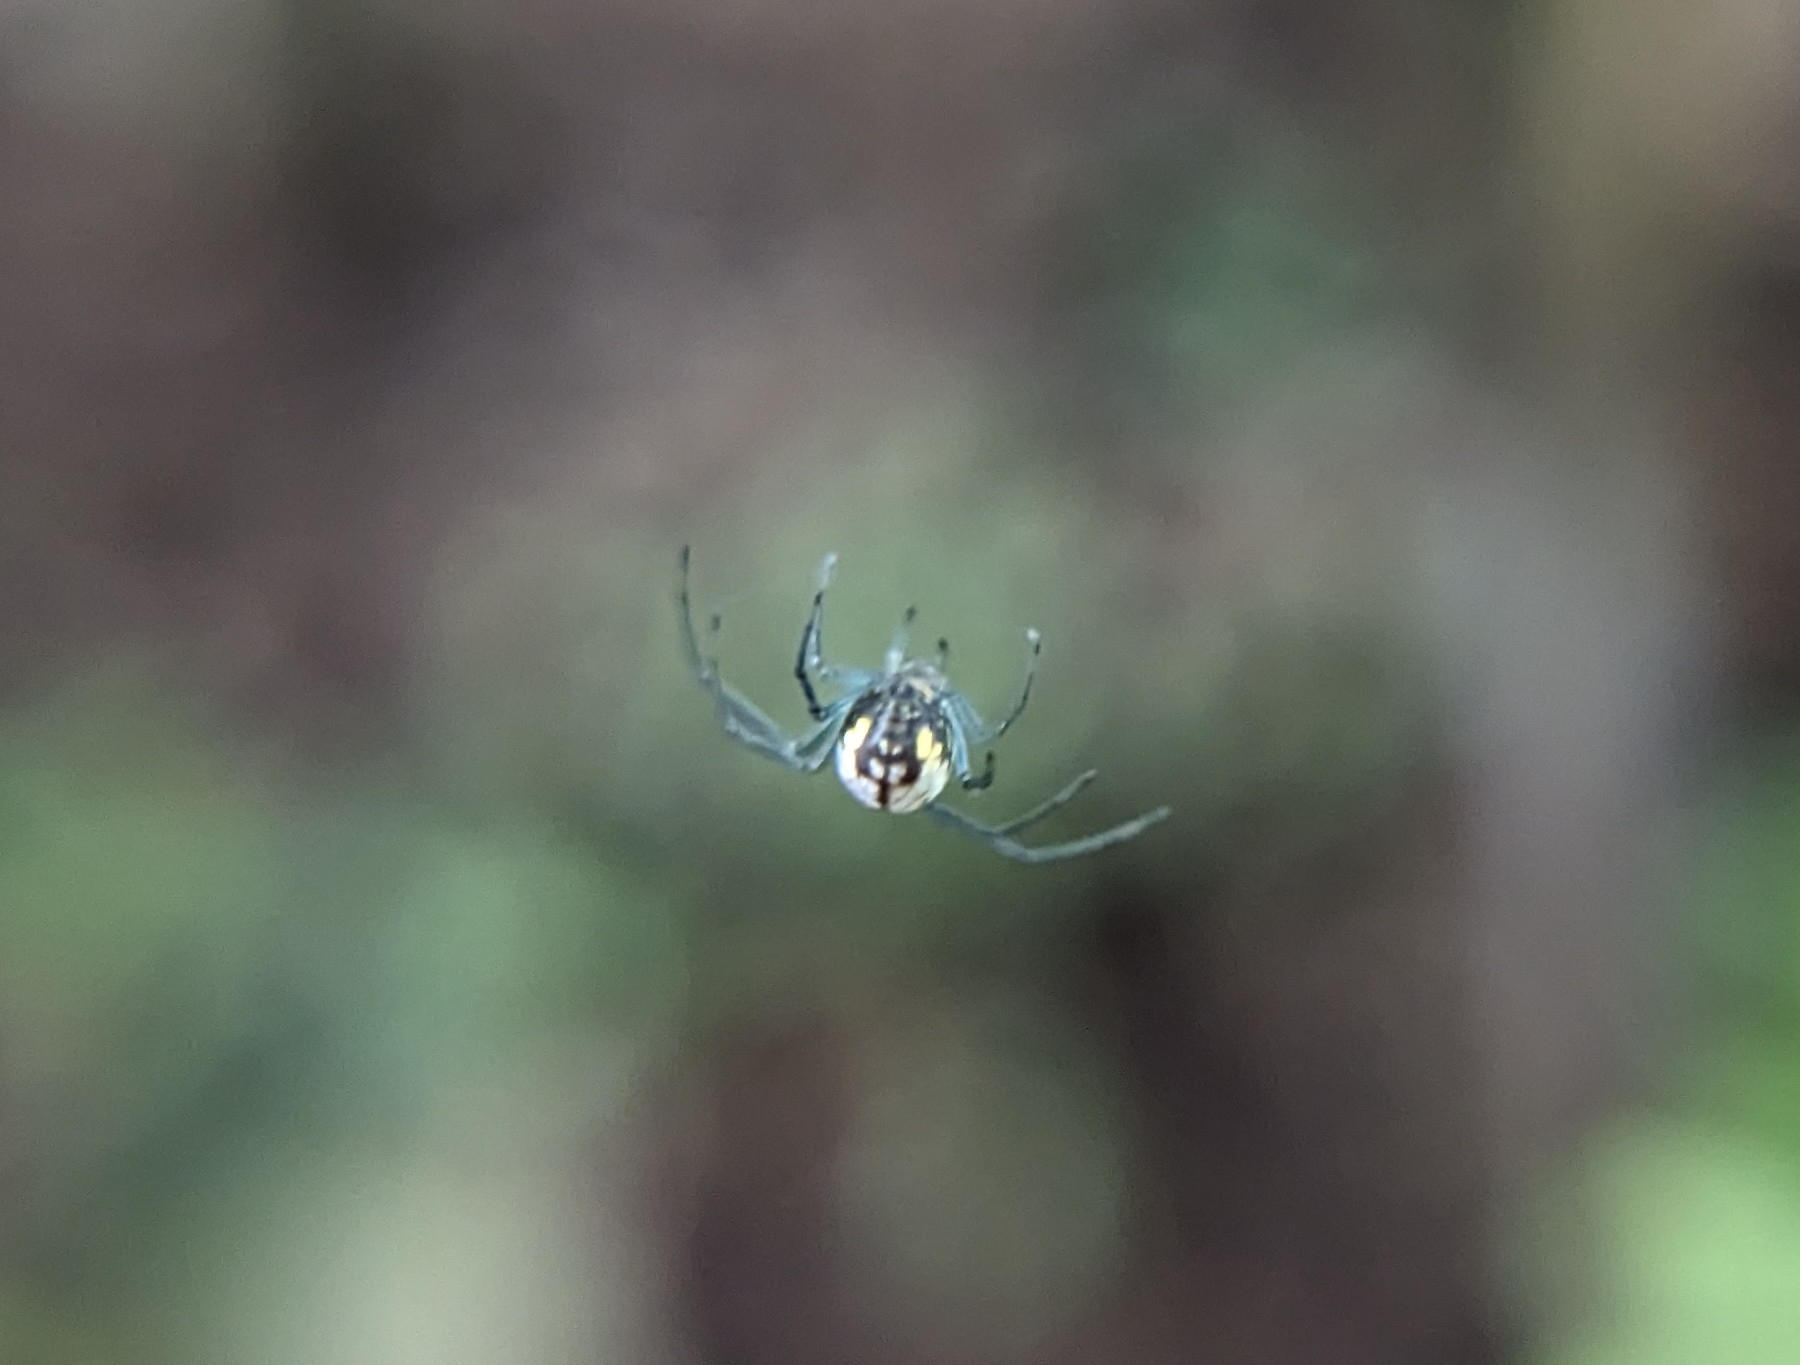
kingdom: Animalia
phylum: Arthropoda
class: Arachnida
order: Araneae
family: Tetragnathidae
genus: Leucauge
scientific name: Leucauge venusta
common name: Longjawed orb weavers
